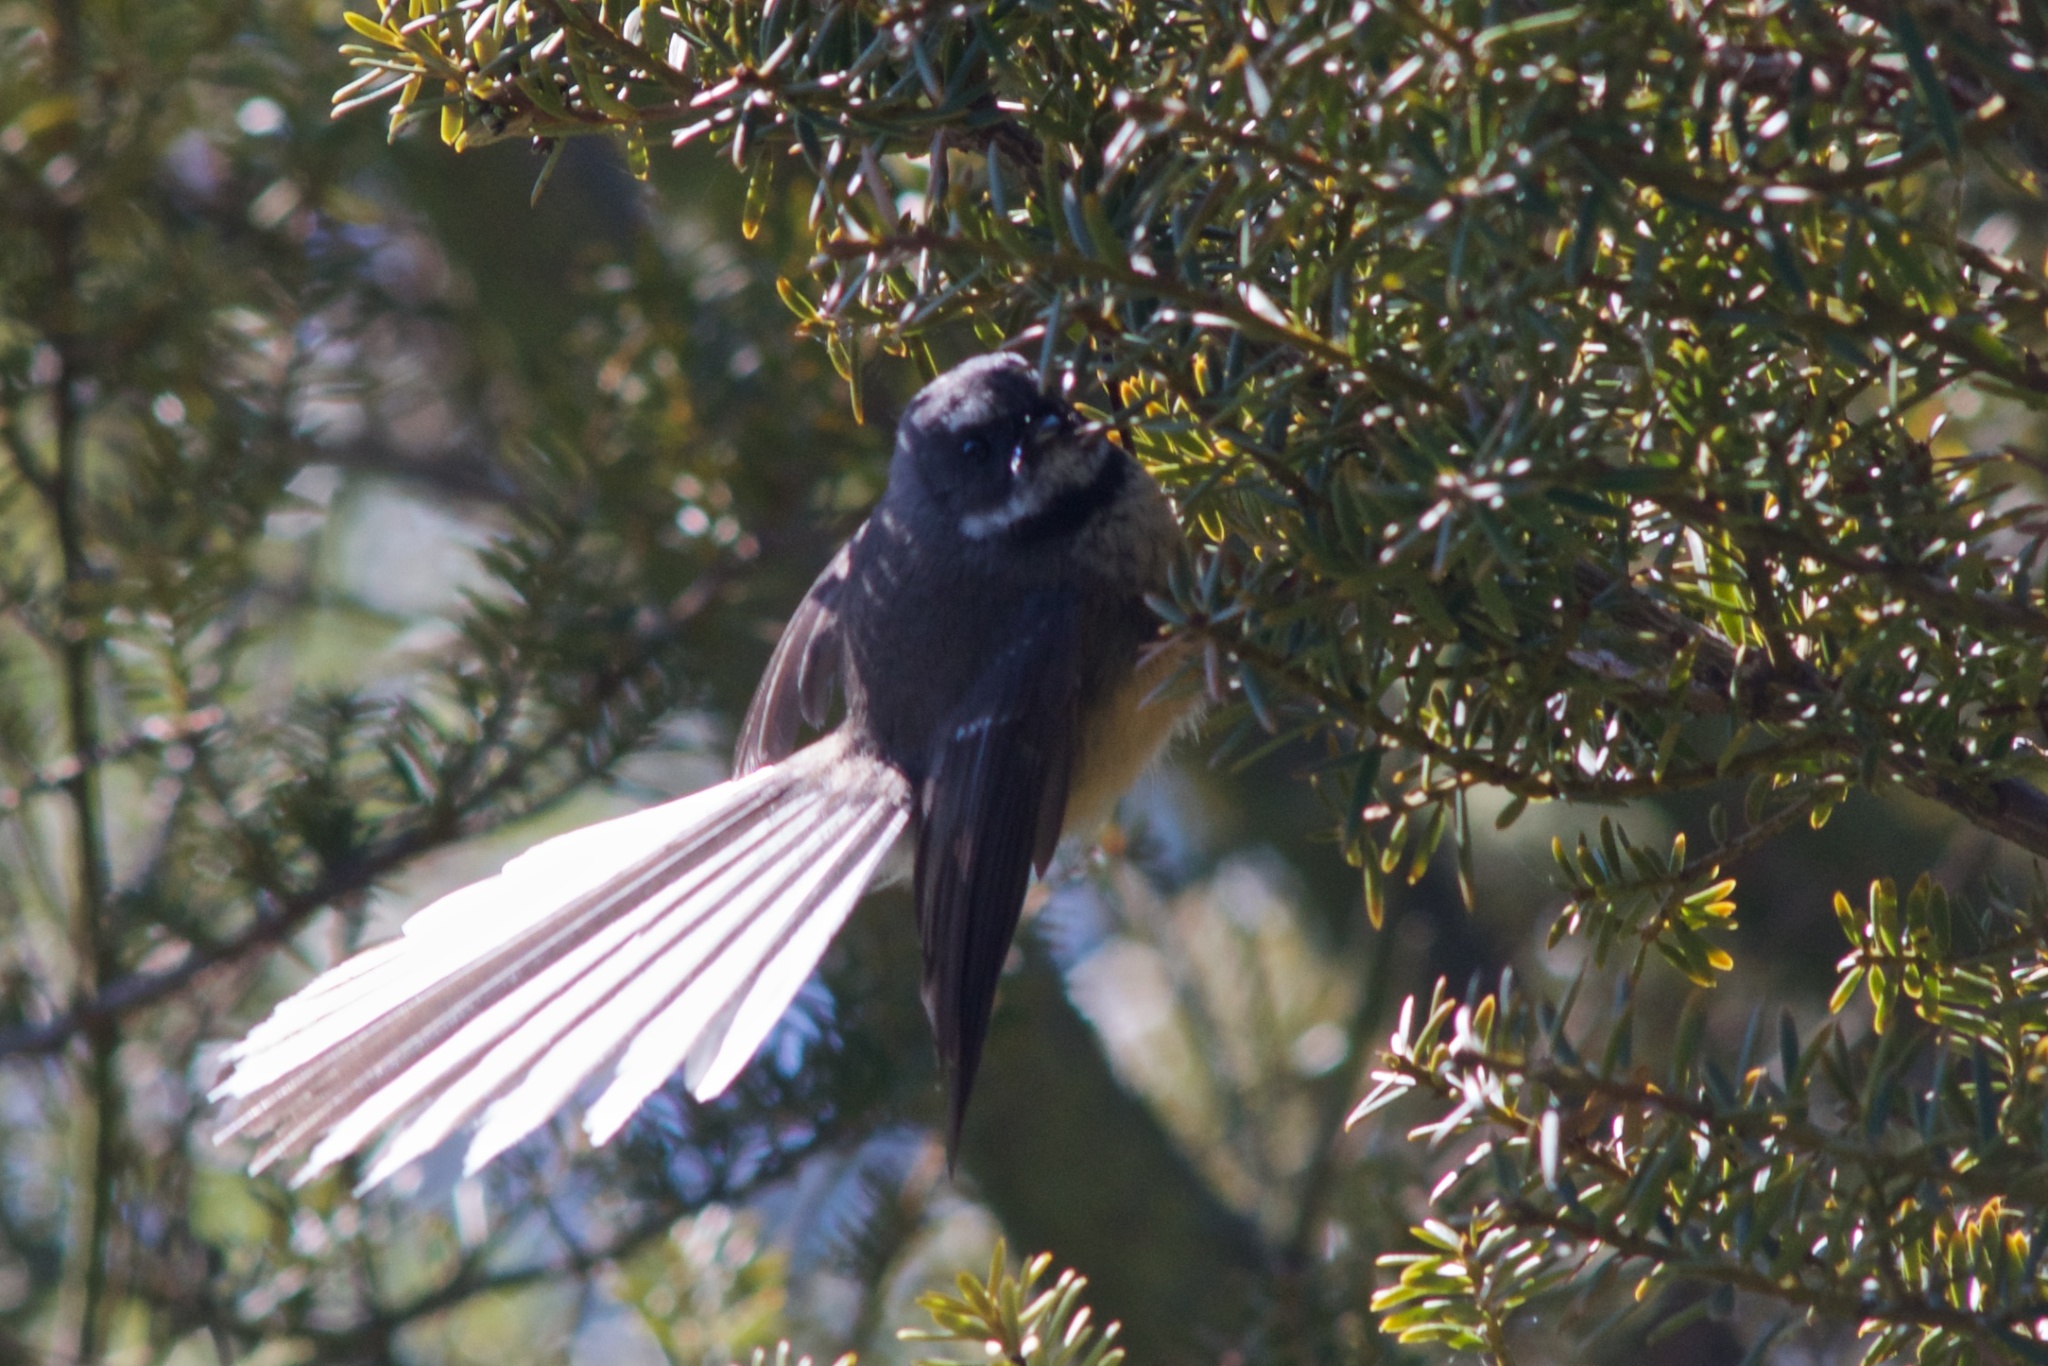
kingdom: Animalia
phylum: Chordata
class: Aves
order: Passeriformes
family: Rhipiduridae
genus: Rhipidura
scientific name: Rhipidura fuliginosa
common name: New zealand fantail
